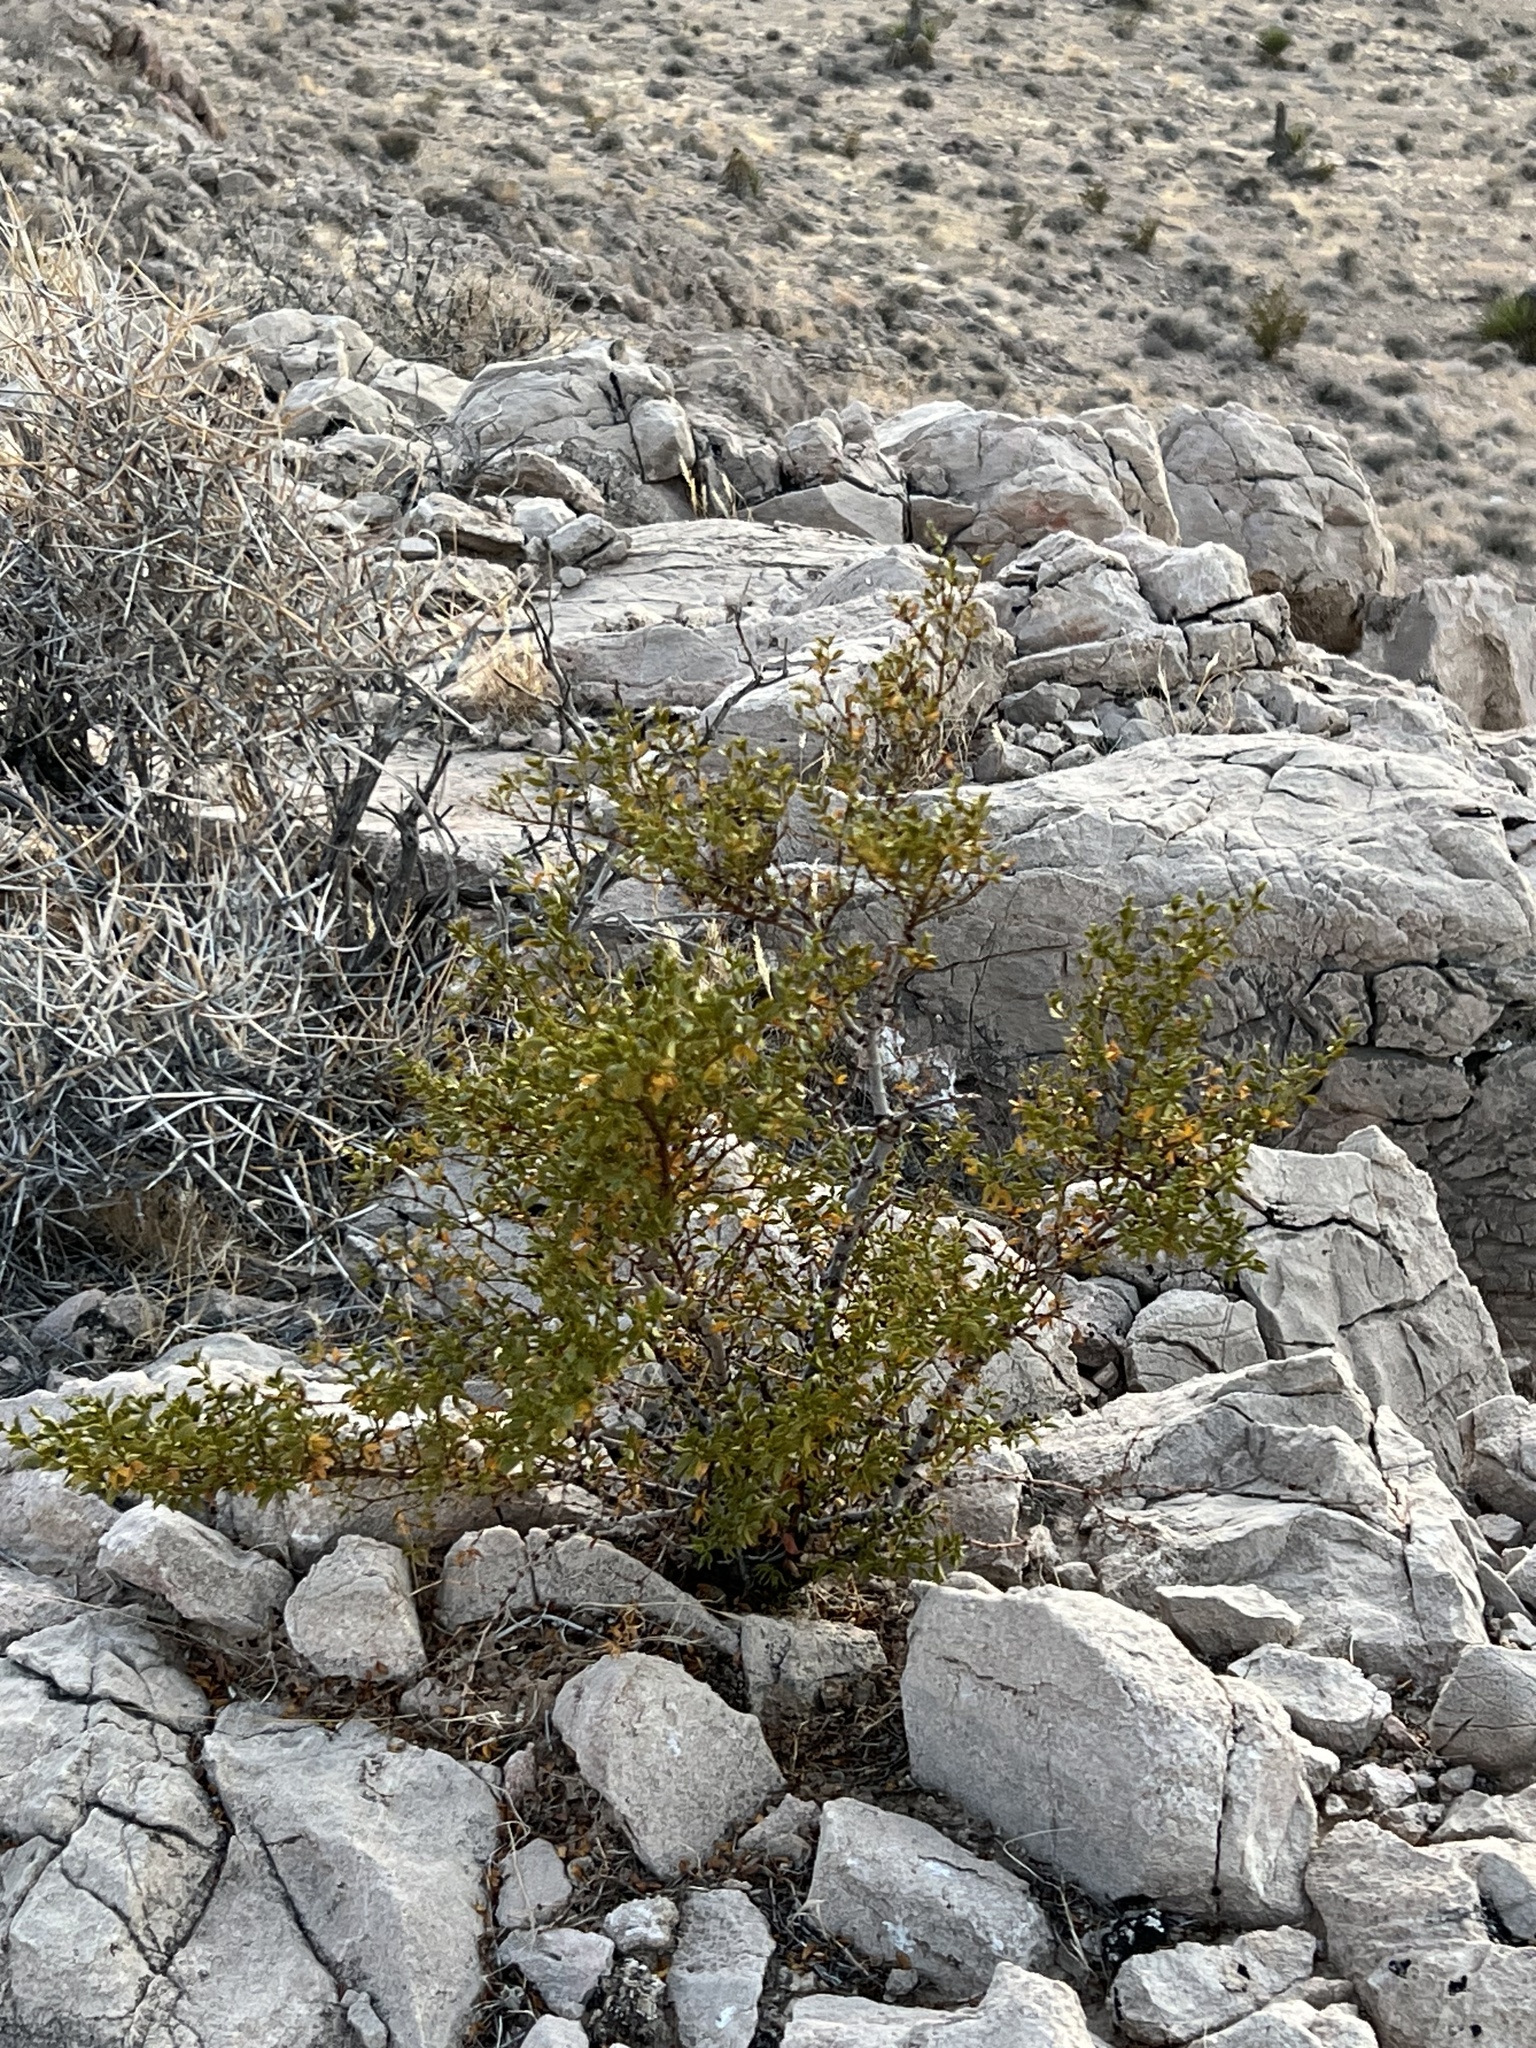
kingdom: Plantae
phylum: Tracheophyta
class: Magnoliopsida
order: Zygophyllales
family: Zygophyllaceae
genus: Larrea
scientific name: Larrea tridentata
